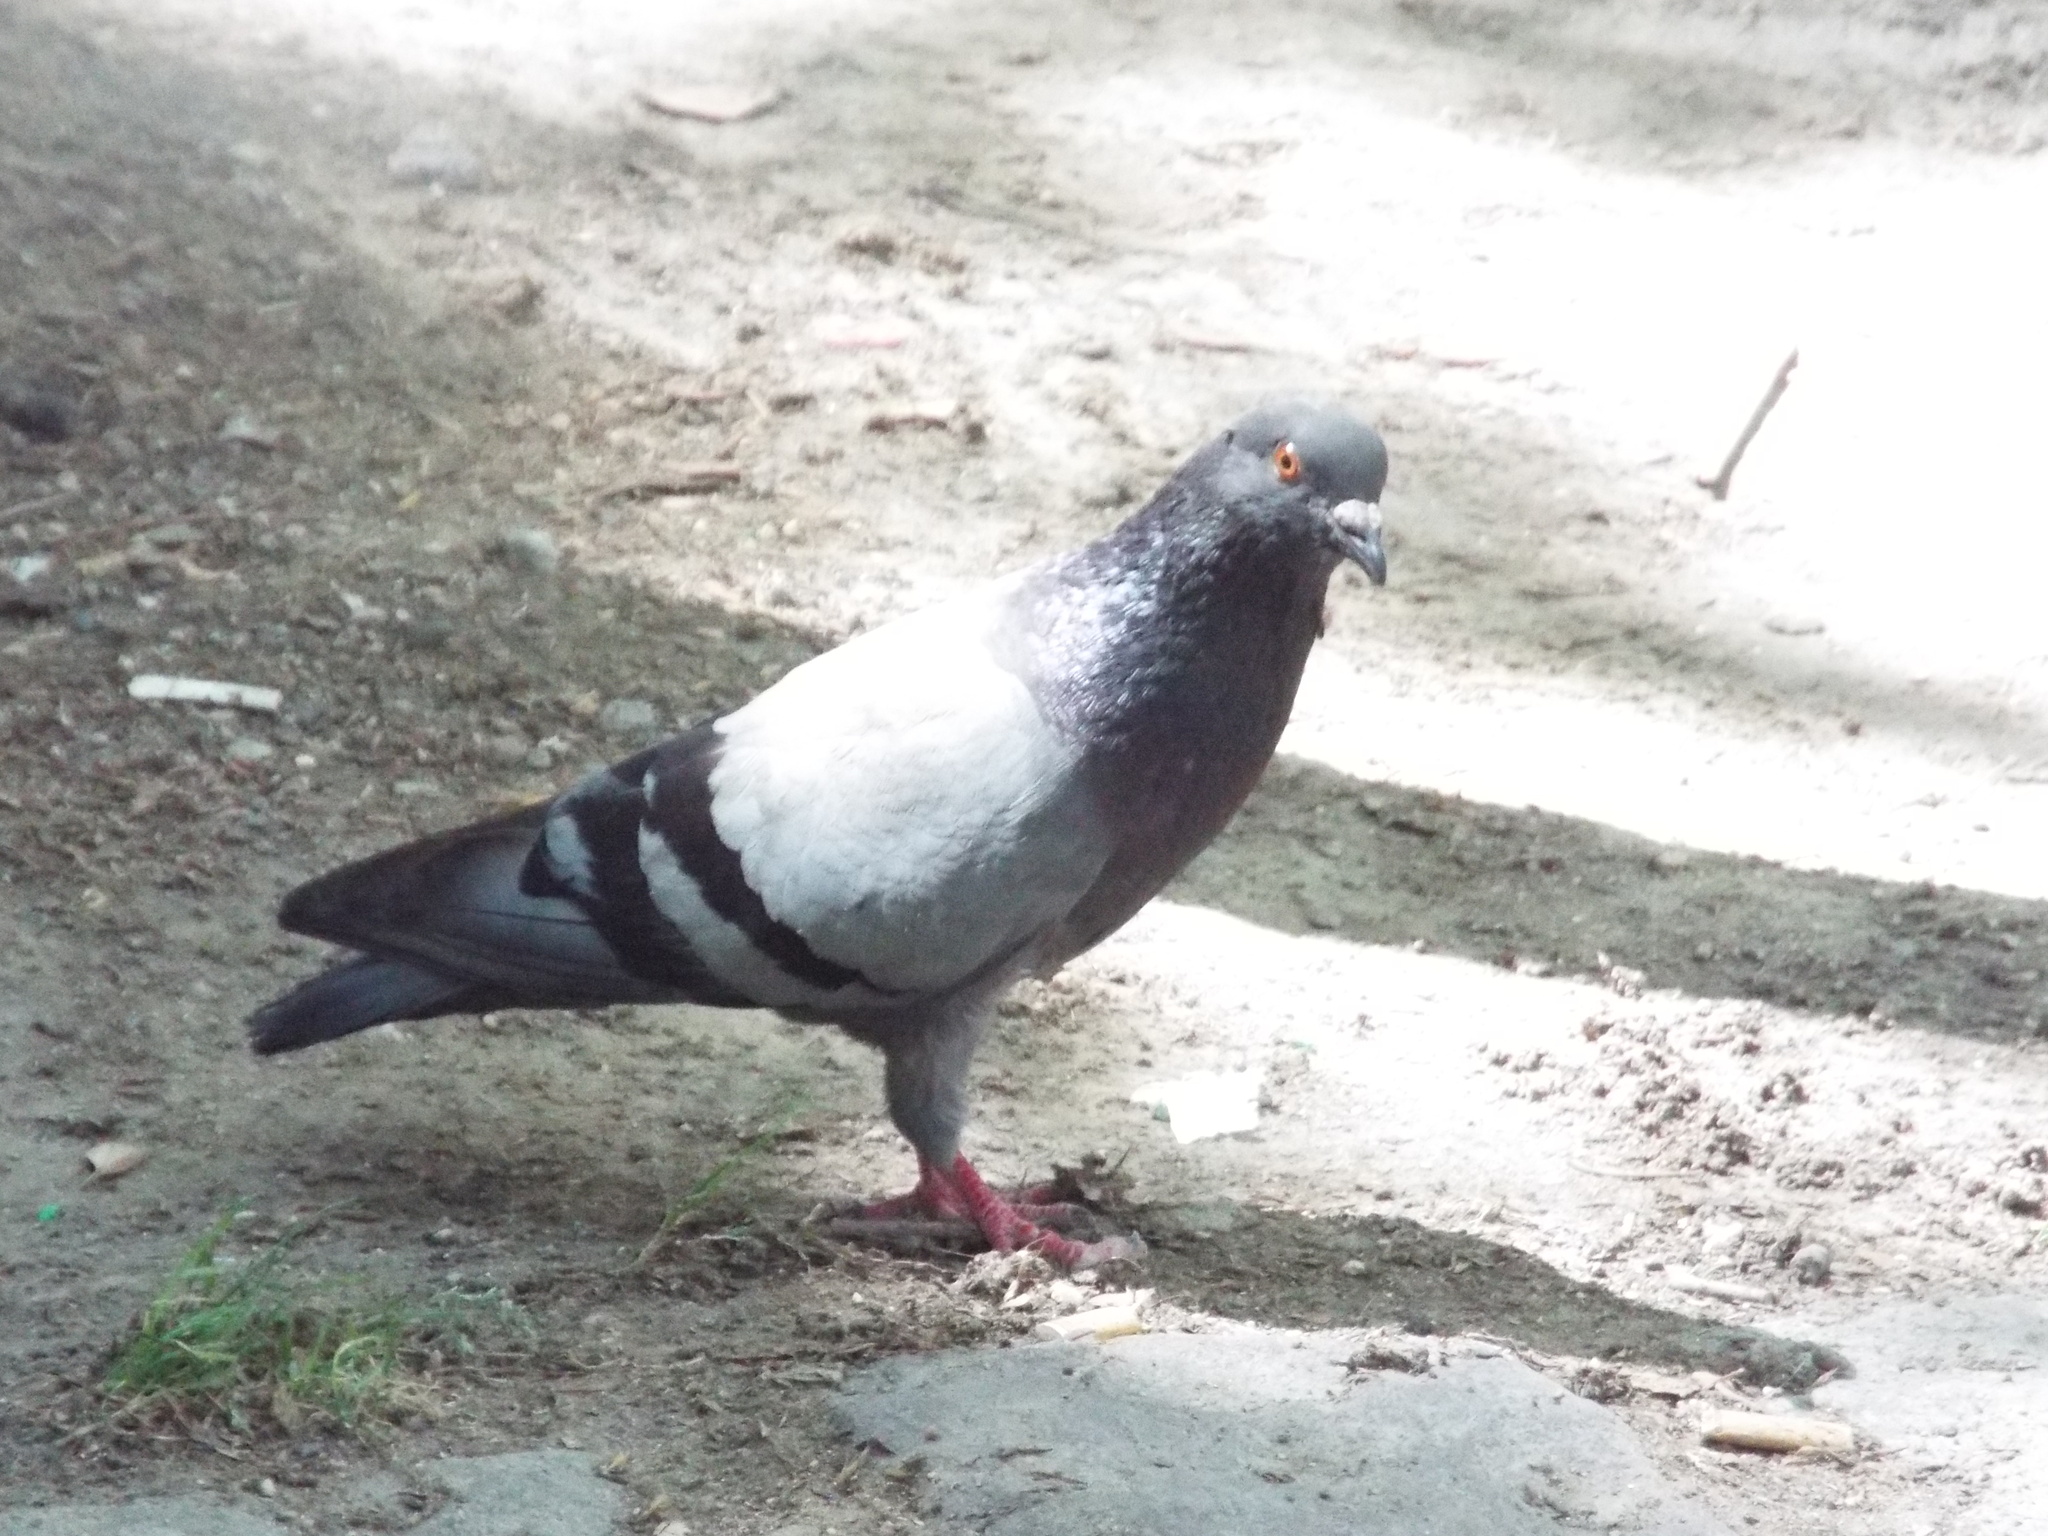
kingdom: Animalia
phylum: Chordata
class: Aves
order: Columbiformes
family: Columbidae
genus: Columba
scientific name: Columba livia
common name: Rock pigeon
